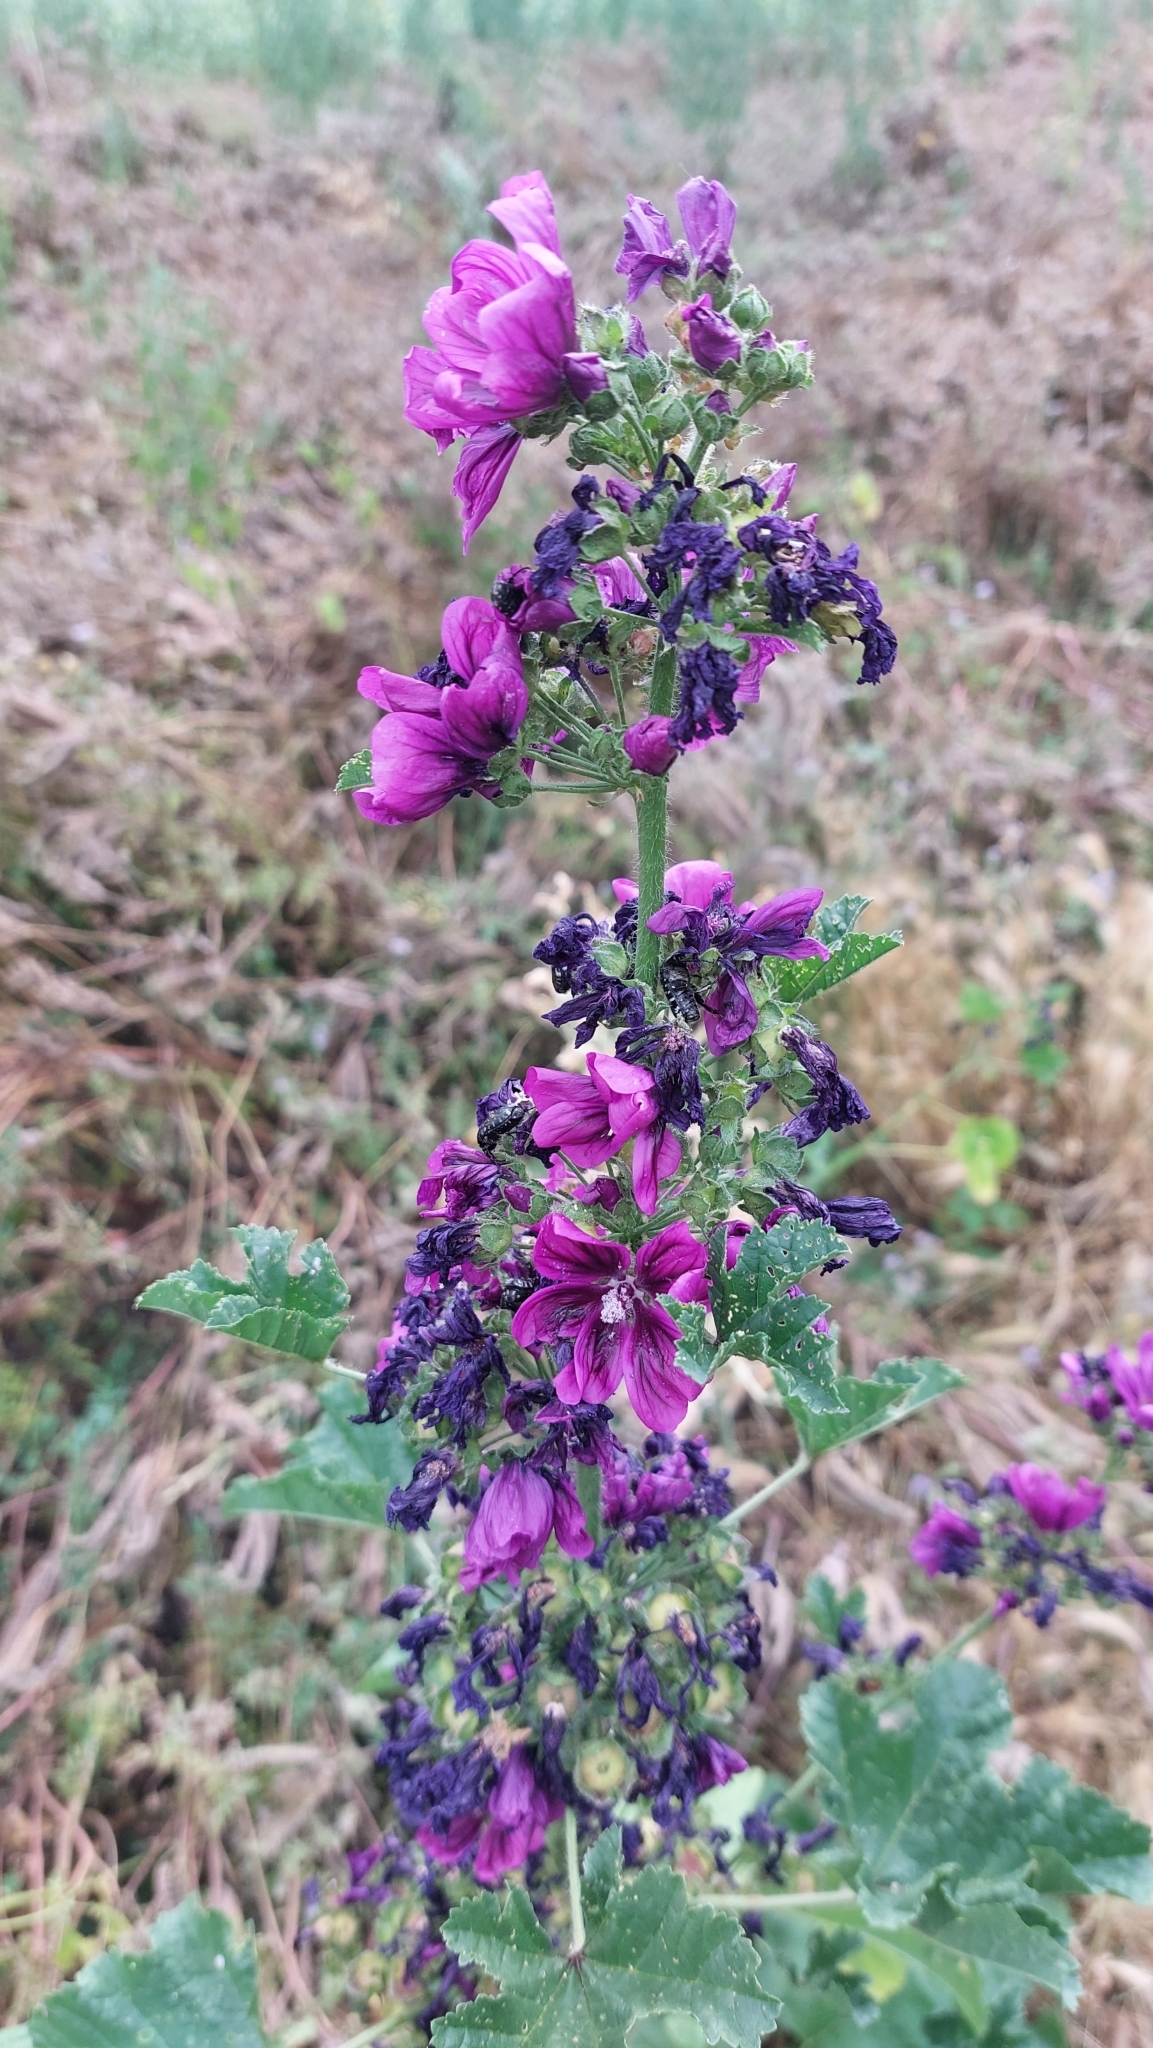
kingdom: Plantae
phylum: Tracheophyta
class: Magnoliopsida
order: Malvales
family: Malvaceae
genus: Malva
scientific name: Malva sylvestris
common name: Common mallow
